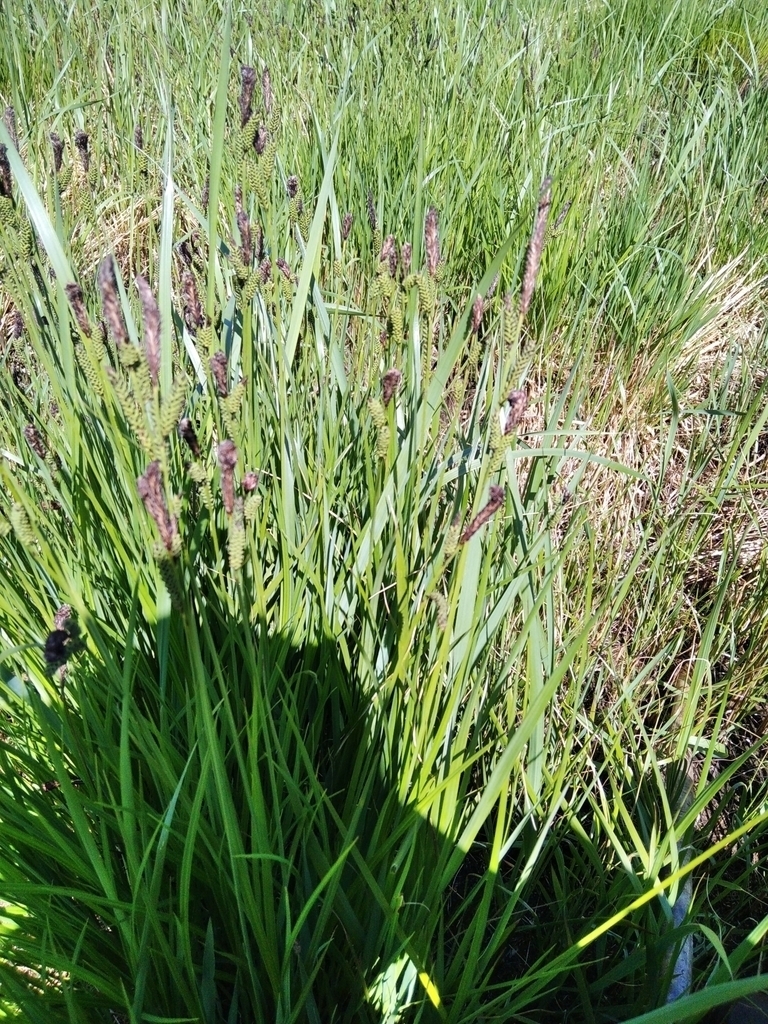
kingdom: Plantae
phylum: Tracheophyta
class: Liliopsida
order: Poales
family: Cyperaceae
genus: Carex
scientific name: Carex nigra
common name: Common sedge
